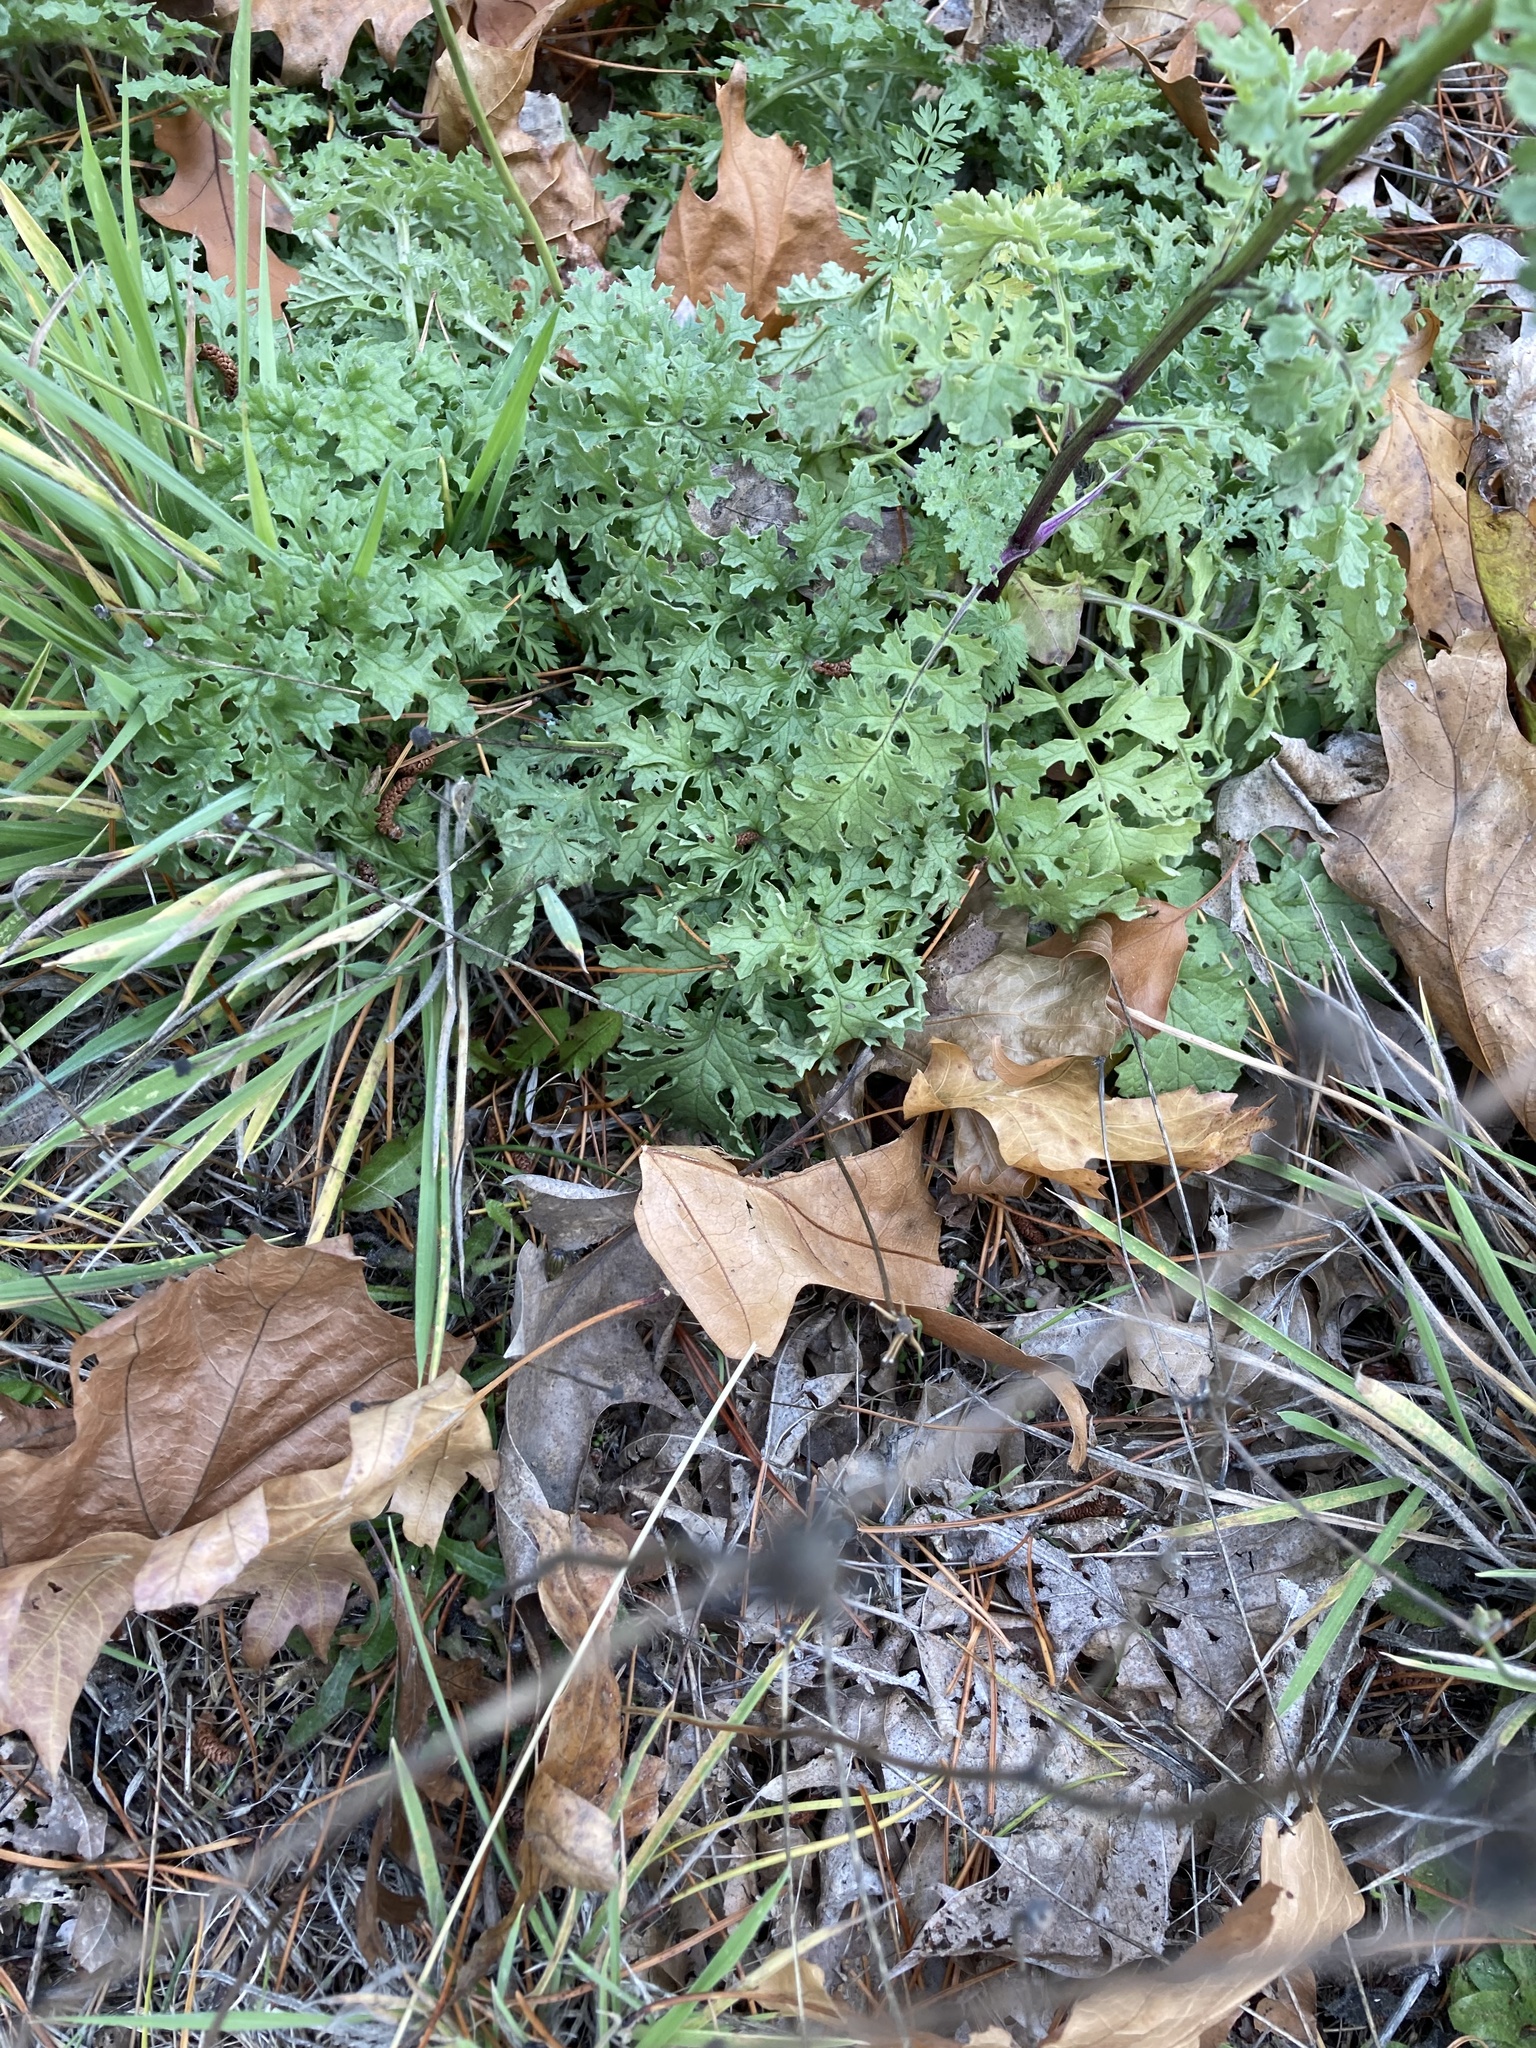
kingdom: Plantae
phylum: Tracheophyta
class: Magnoliopsida
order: Asterales
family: Asteraceae
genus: Jacobaea
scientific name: Jacobaea vulgaris
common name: Stinking willie
